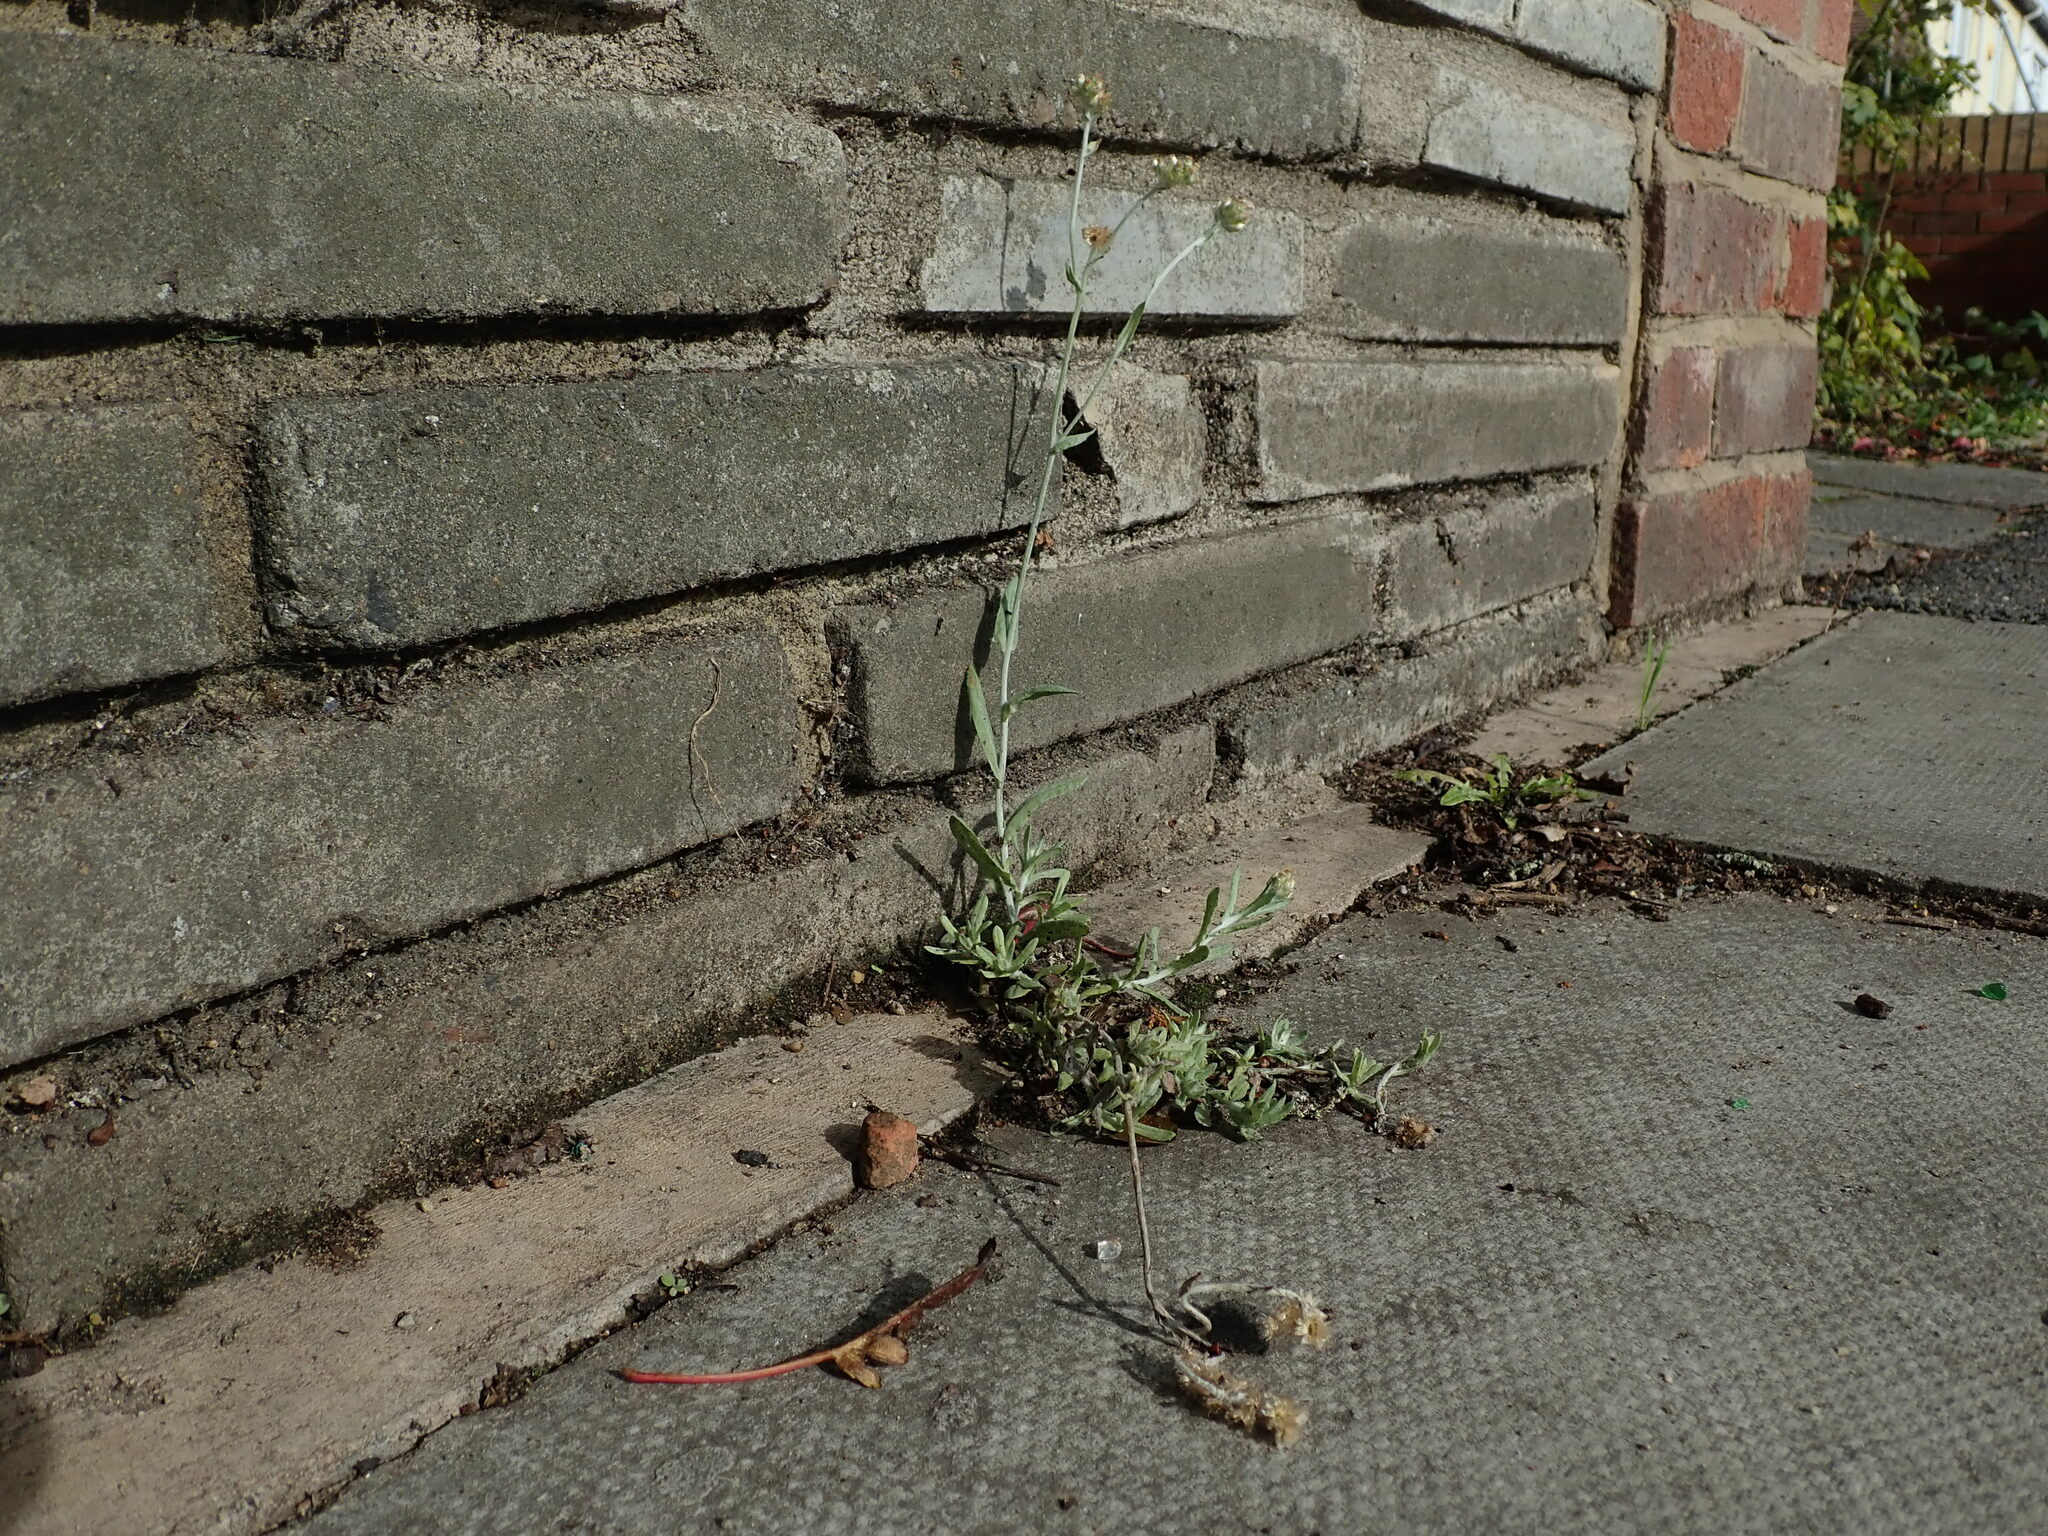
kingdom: Plantae
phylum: Tracheophyta
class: Magnoliopsida
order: Asterales
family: Asteraceae
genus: Helichrysum
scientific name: Helichrysum luteoalbum
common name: Daisy
